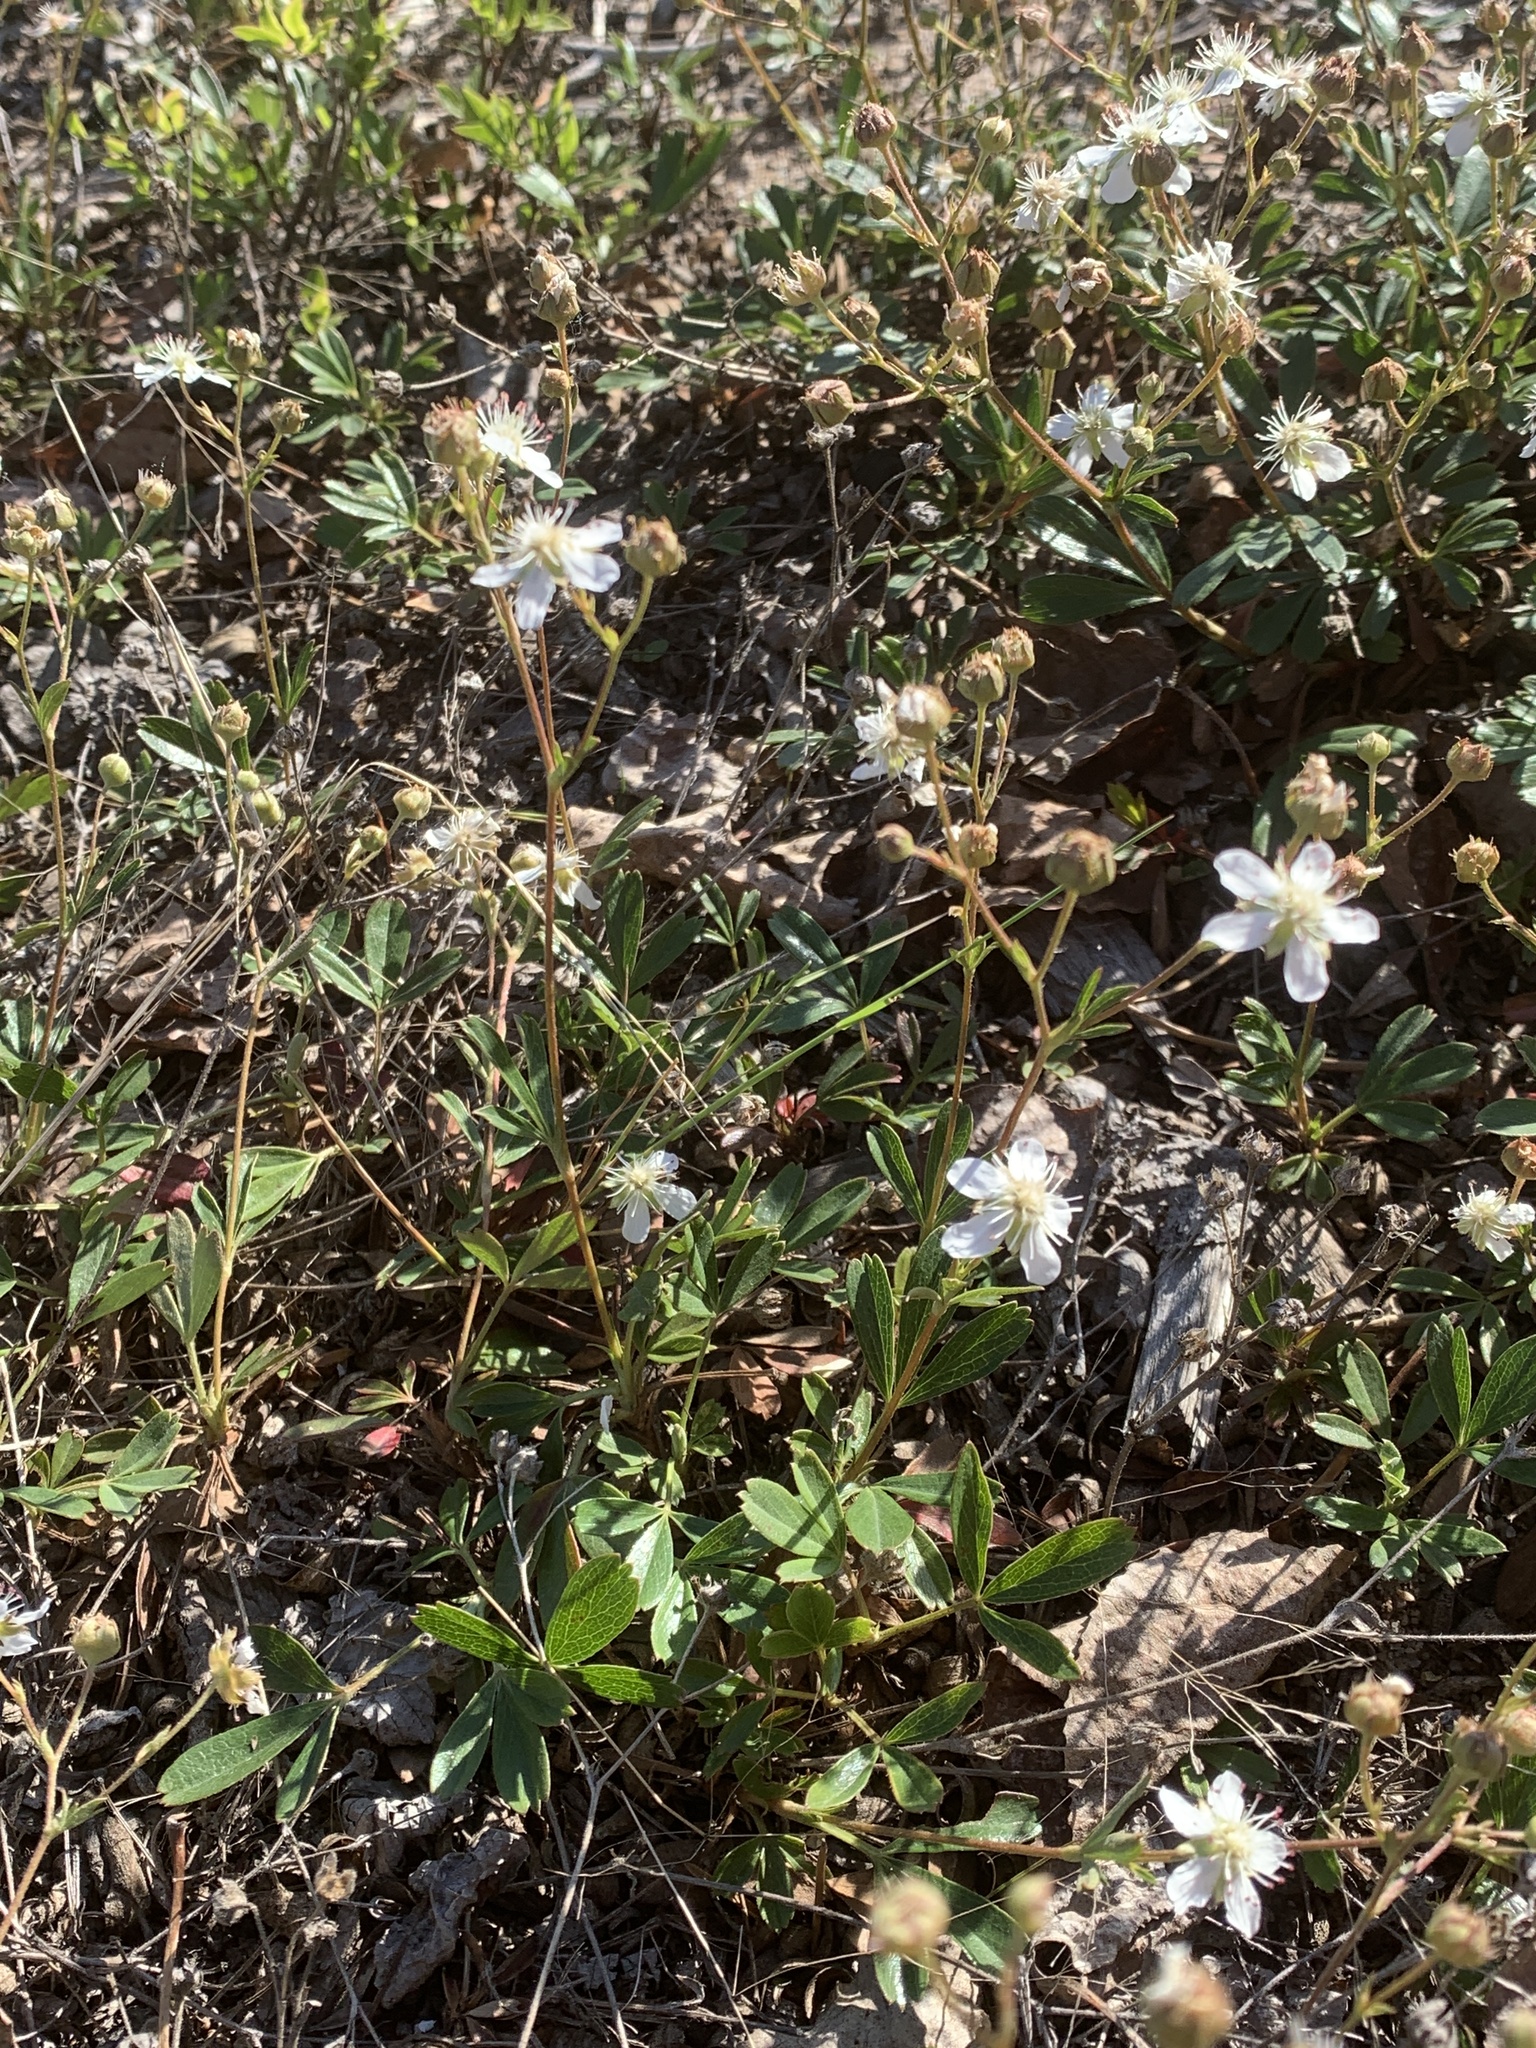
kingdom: Plantae
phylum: Tracheophyta
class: Magnoliopsida
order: Rosales
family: Rosaceae
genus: Sibbaldia
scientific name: Sibbaldia tridentata
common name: Three-toothed cinquefoil
